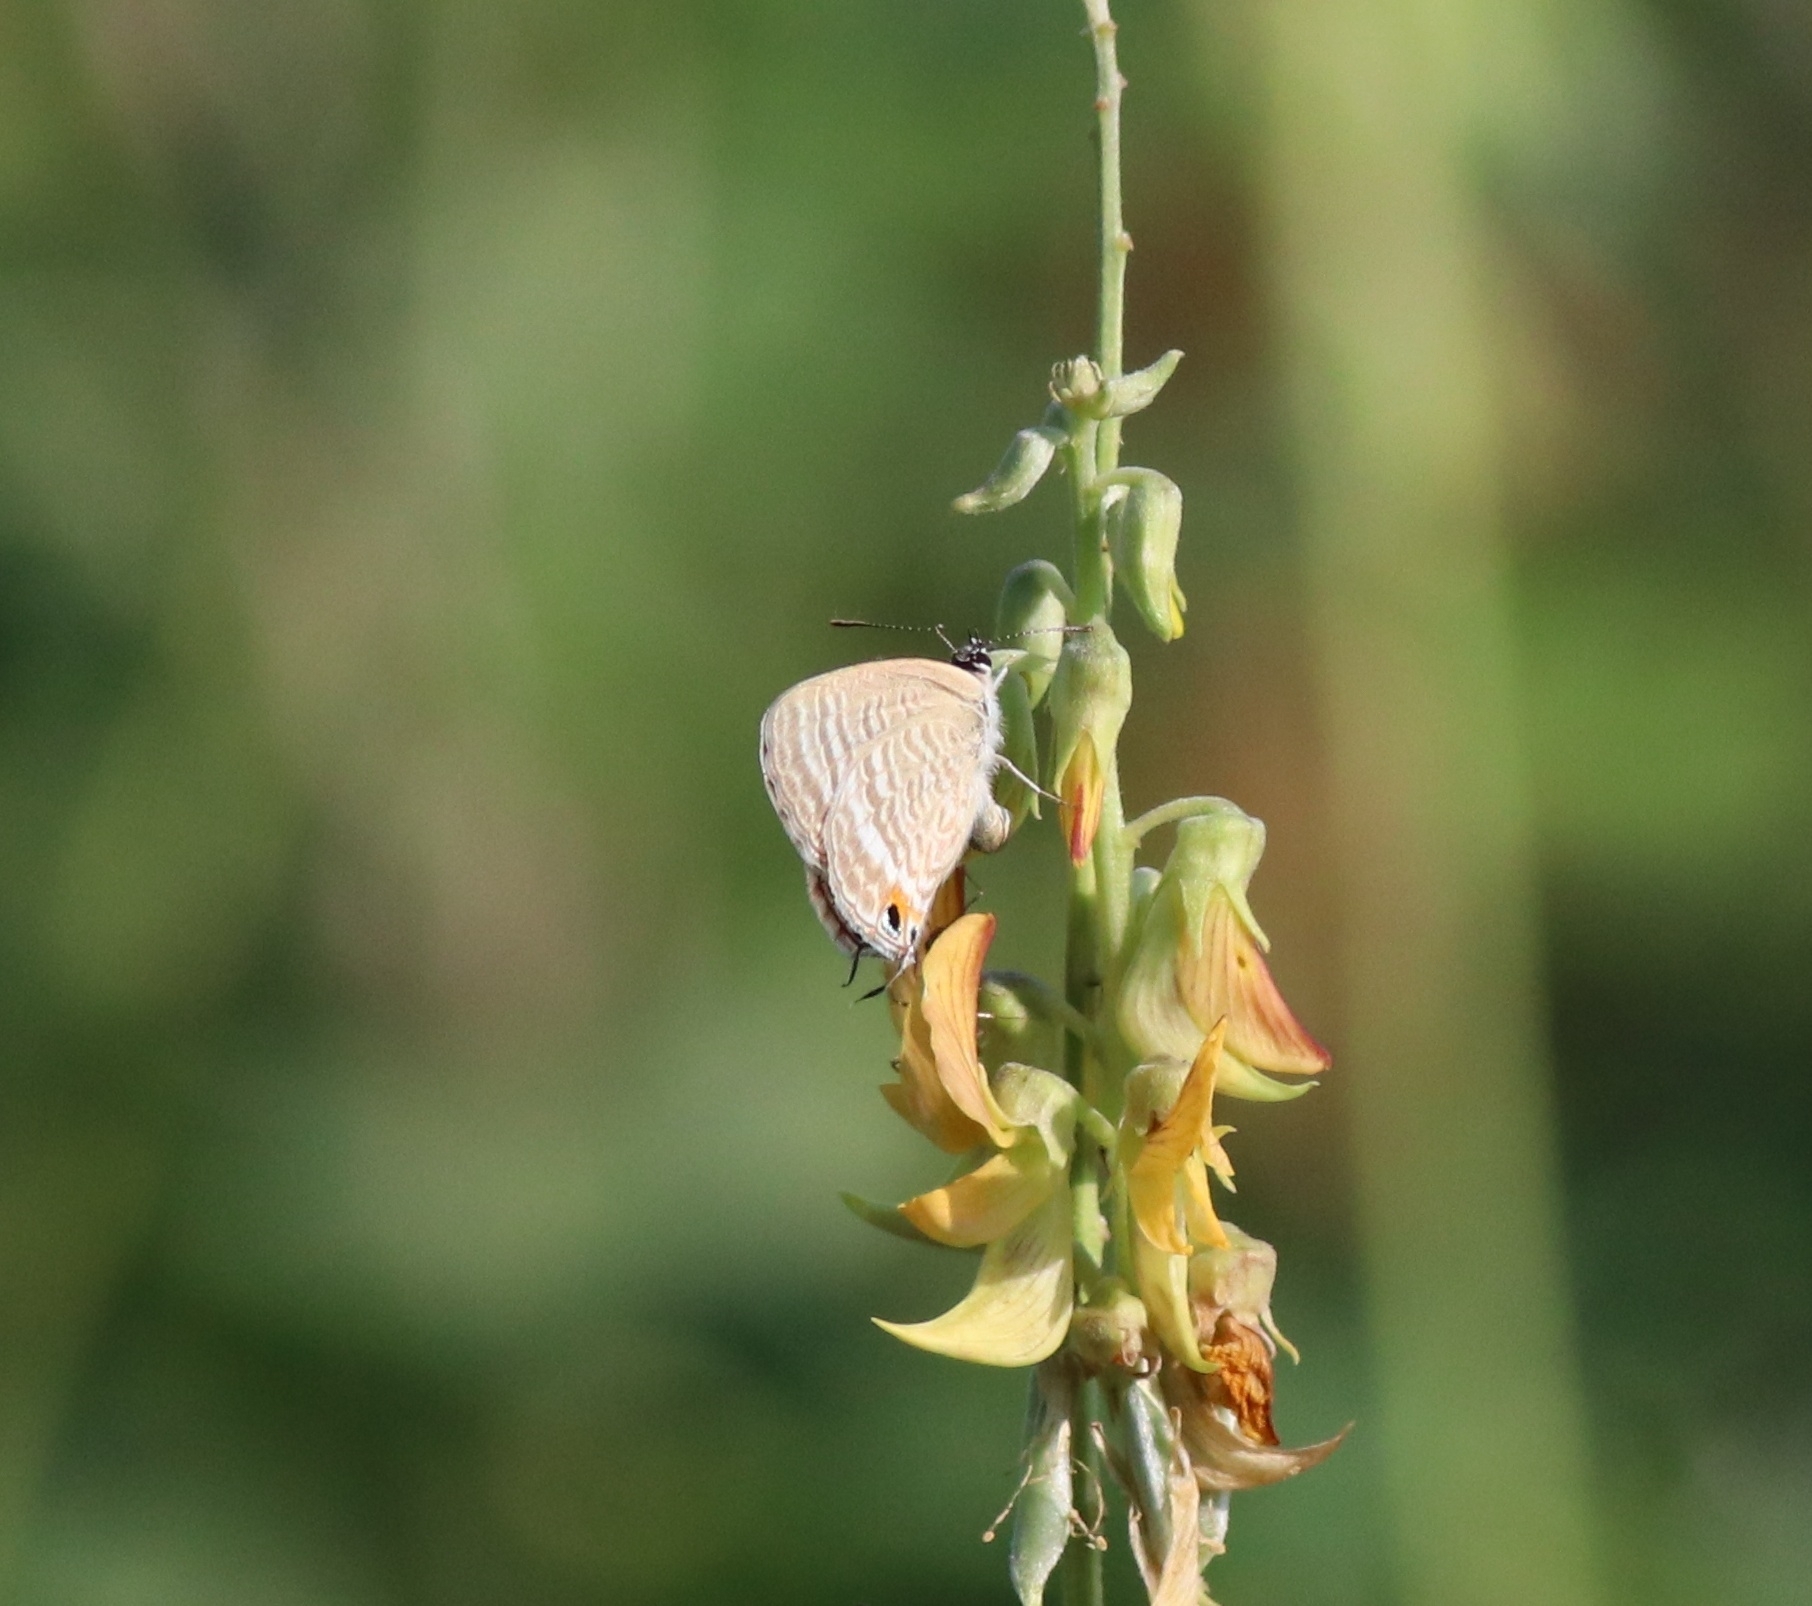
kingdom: Animalia
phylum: Arthropoda
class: Insecta
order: Lepidoptera
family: Lycaenidae
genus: Lampides
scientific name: Lampides boeticus
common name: Long-tailed blue
